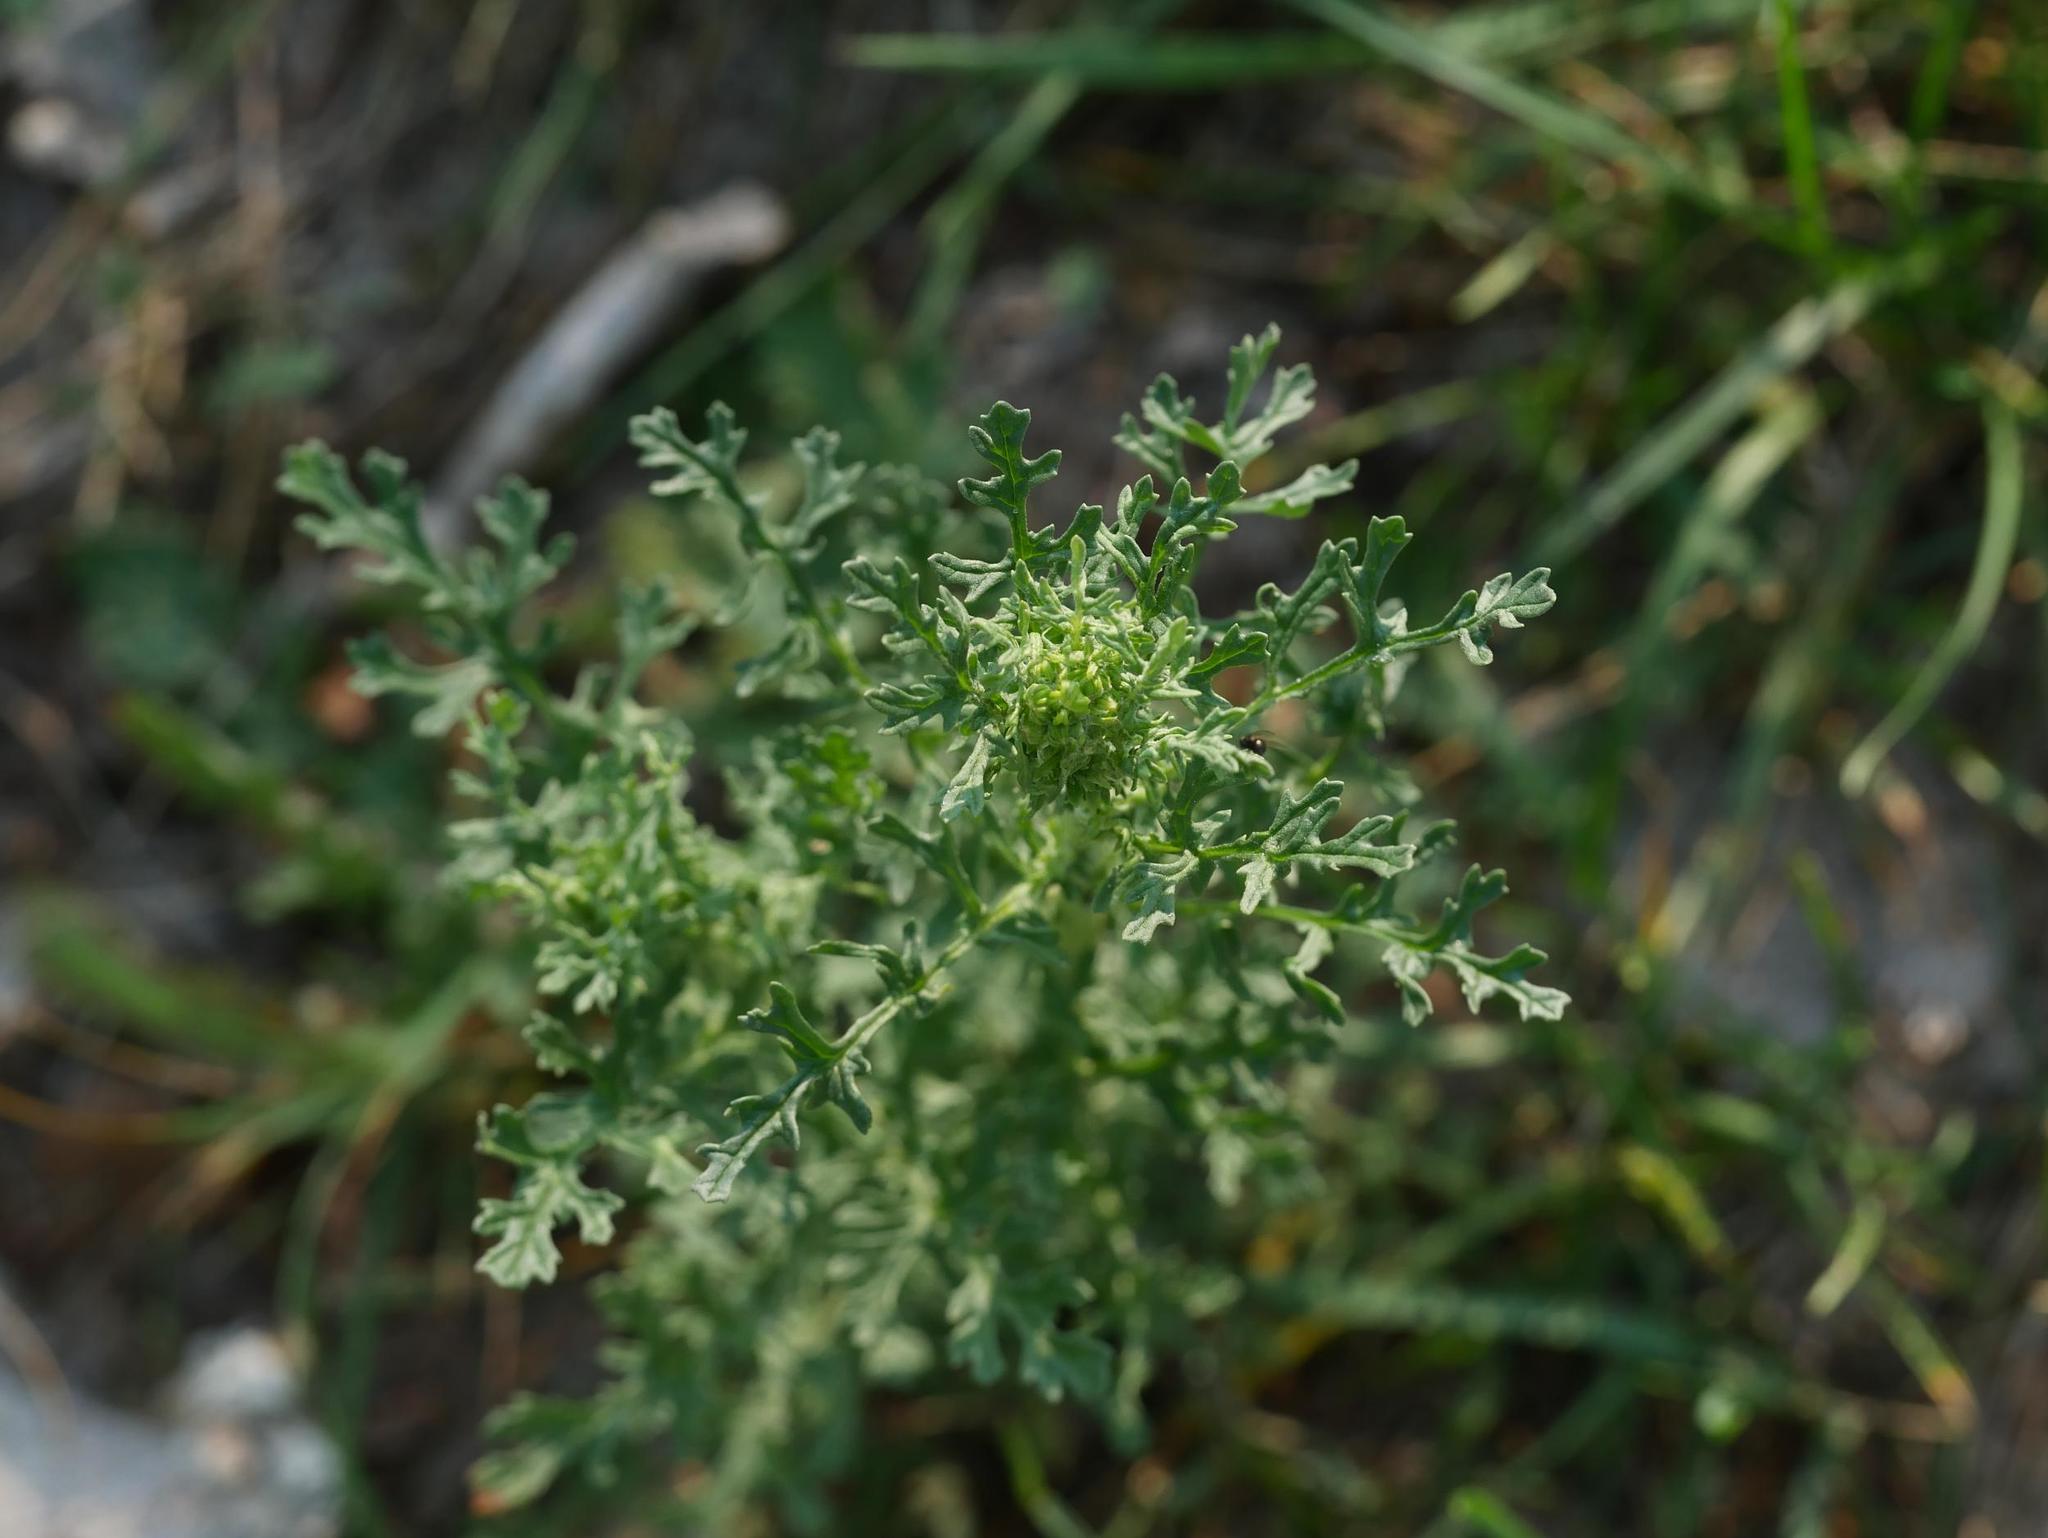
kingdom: Plantae
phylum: Tracheophyta
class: Magnoliopsida
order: Asterales
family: Asteraceae
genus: Jacobaea
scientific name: Jacobaea vulgaris
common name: Stinking willie
